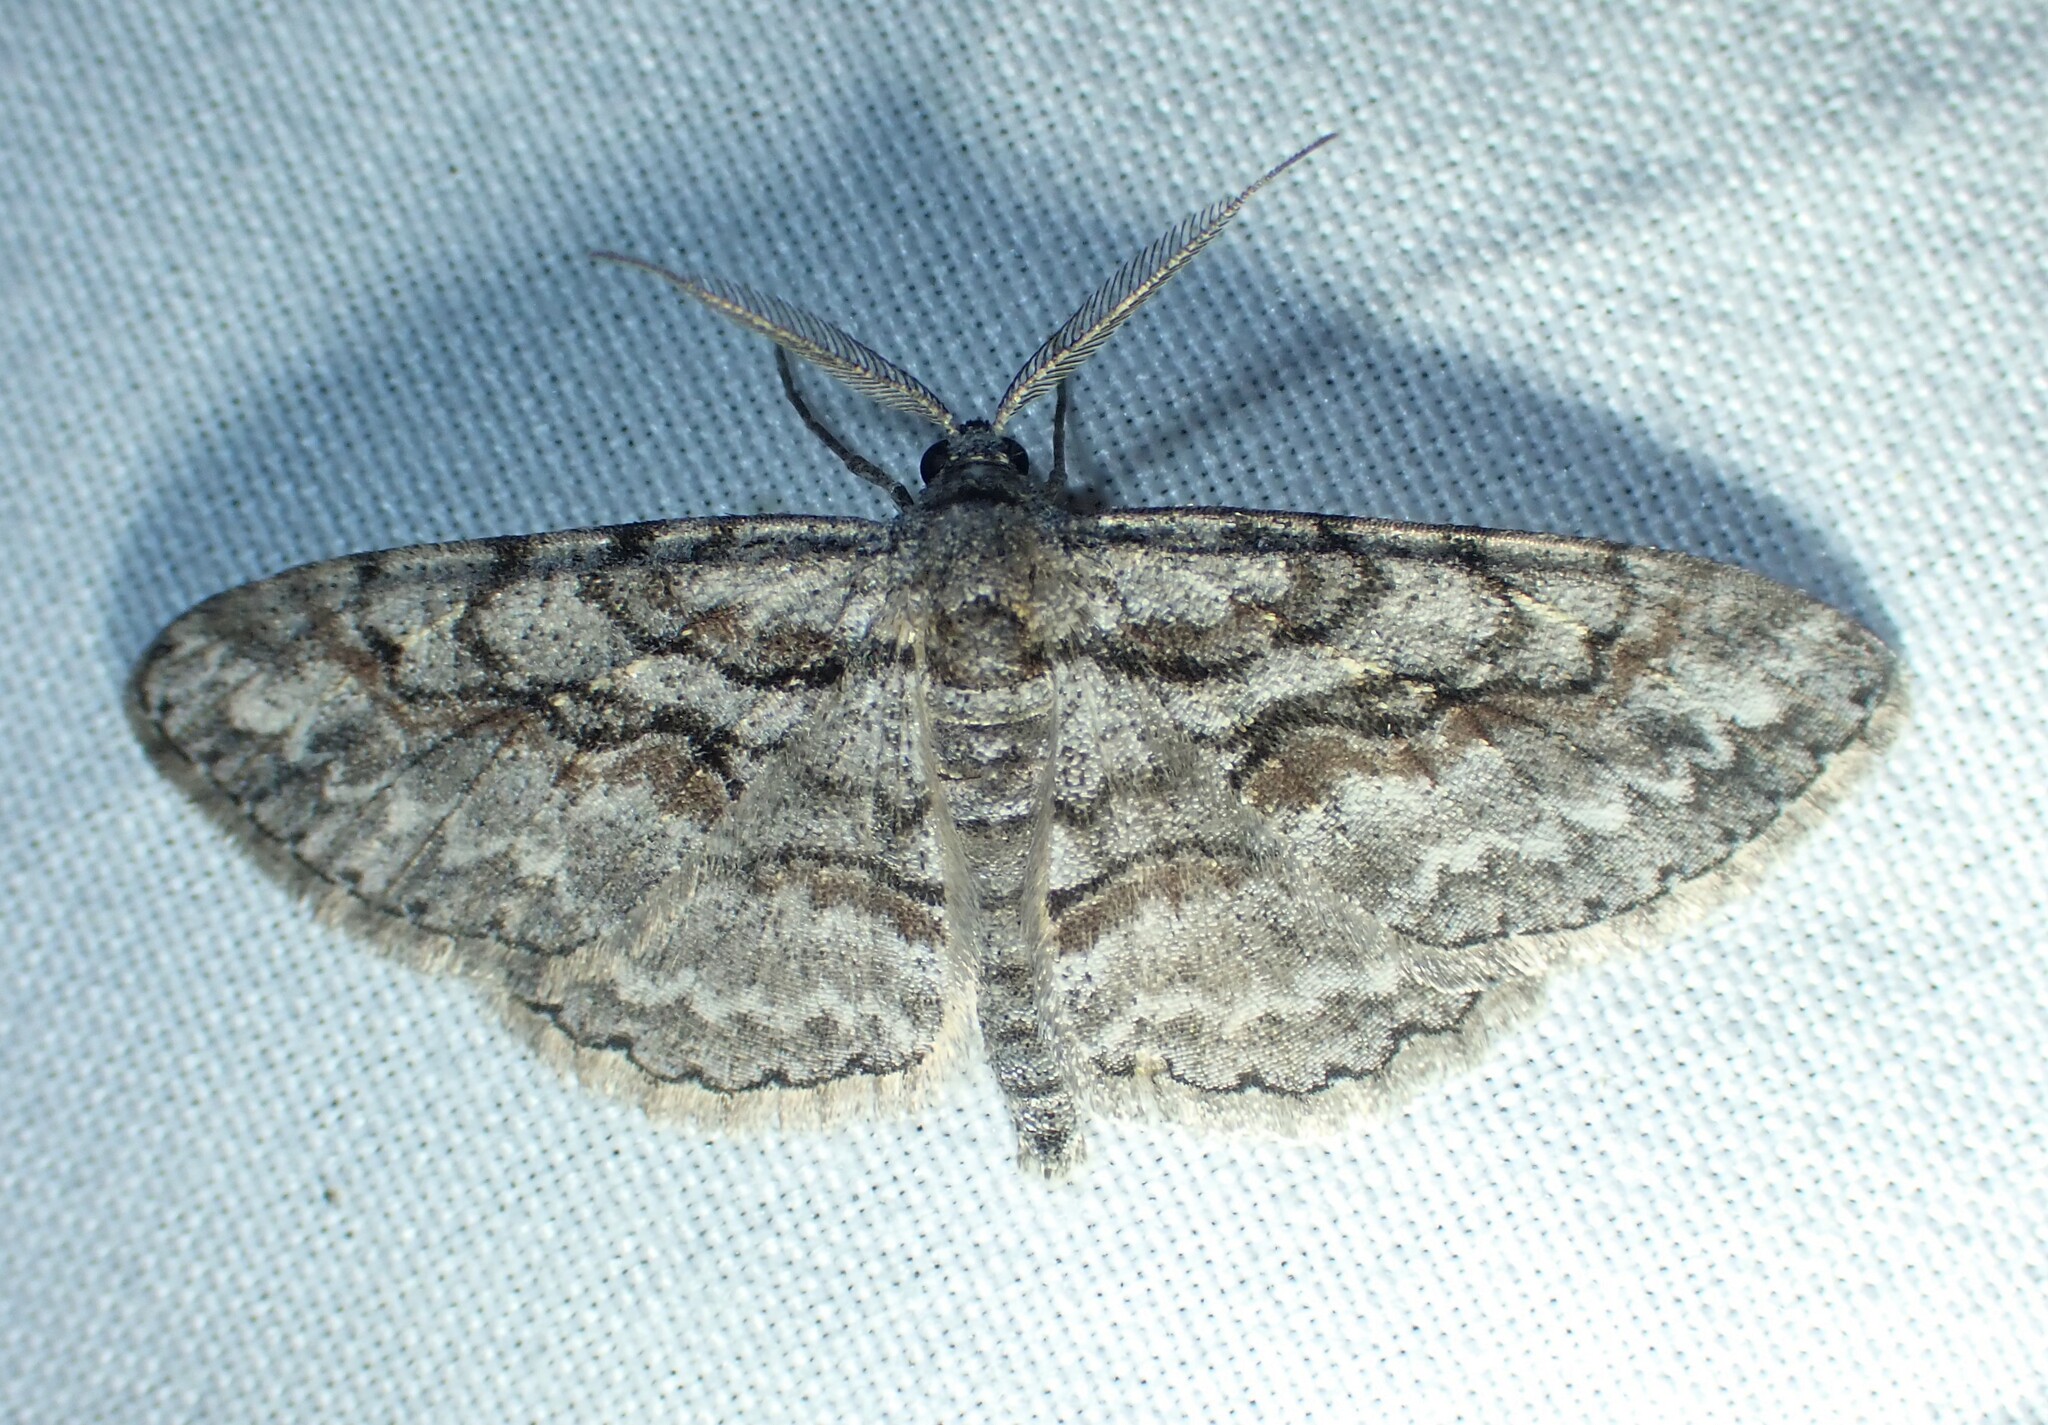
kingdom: Animalia
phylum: Arthropoda
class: Insecta
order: Lepidoptera
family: Geometridae
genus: Iridopsis
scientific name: Iridopsis humaria
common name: Small purplish gray
